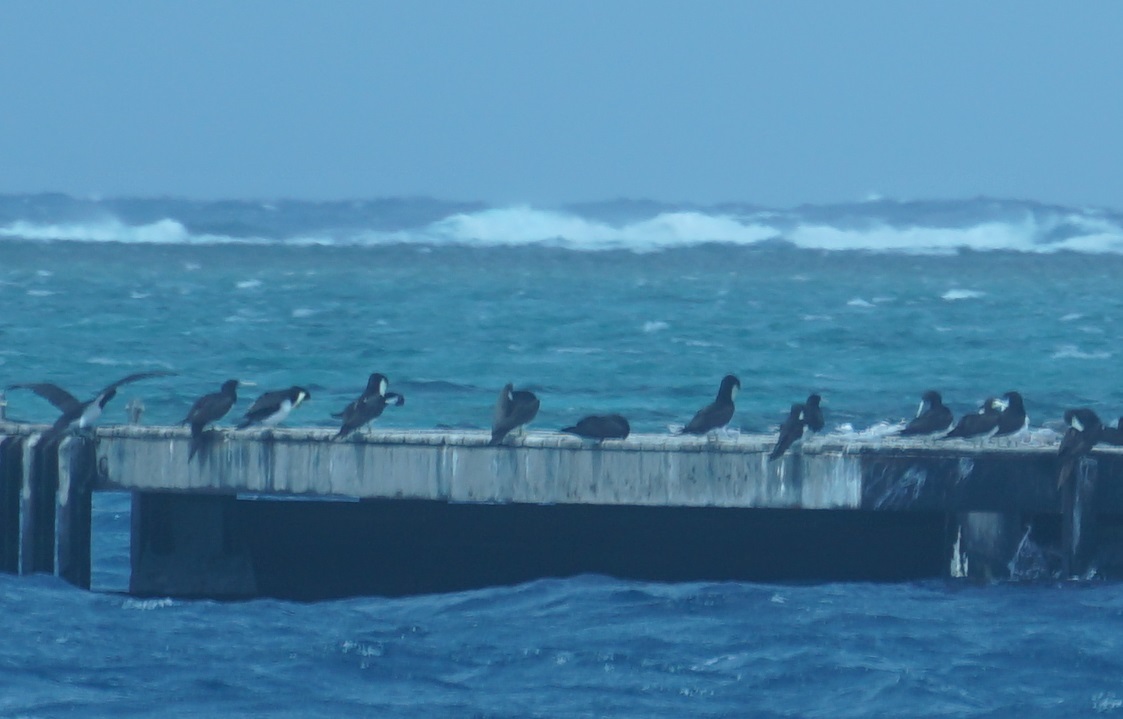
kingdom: Animalia
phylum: Chordata
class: Aves
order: Suliformes
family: Sulidae
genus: Sula
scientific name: Sula leucogaster
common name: Brown booby
